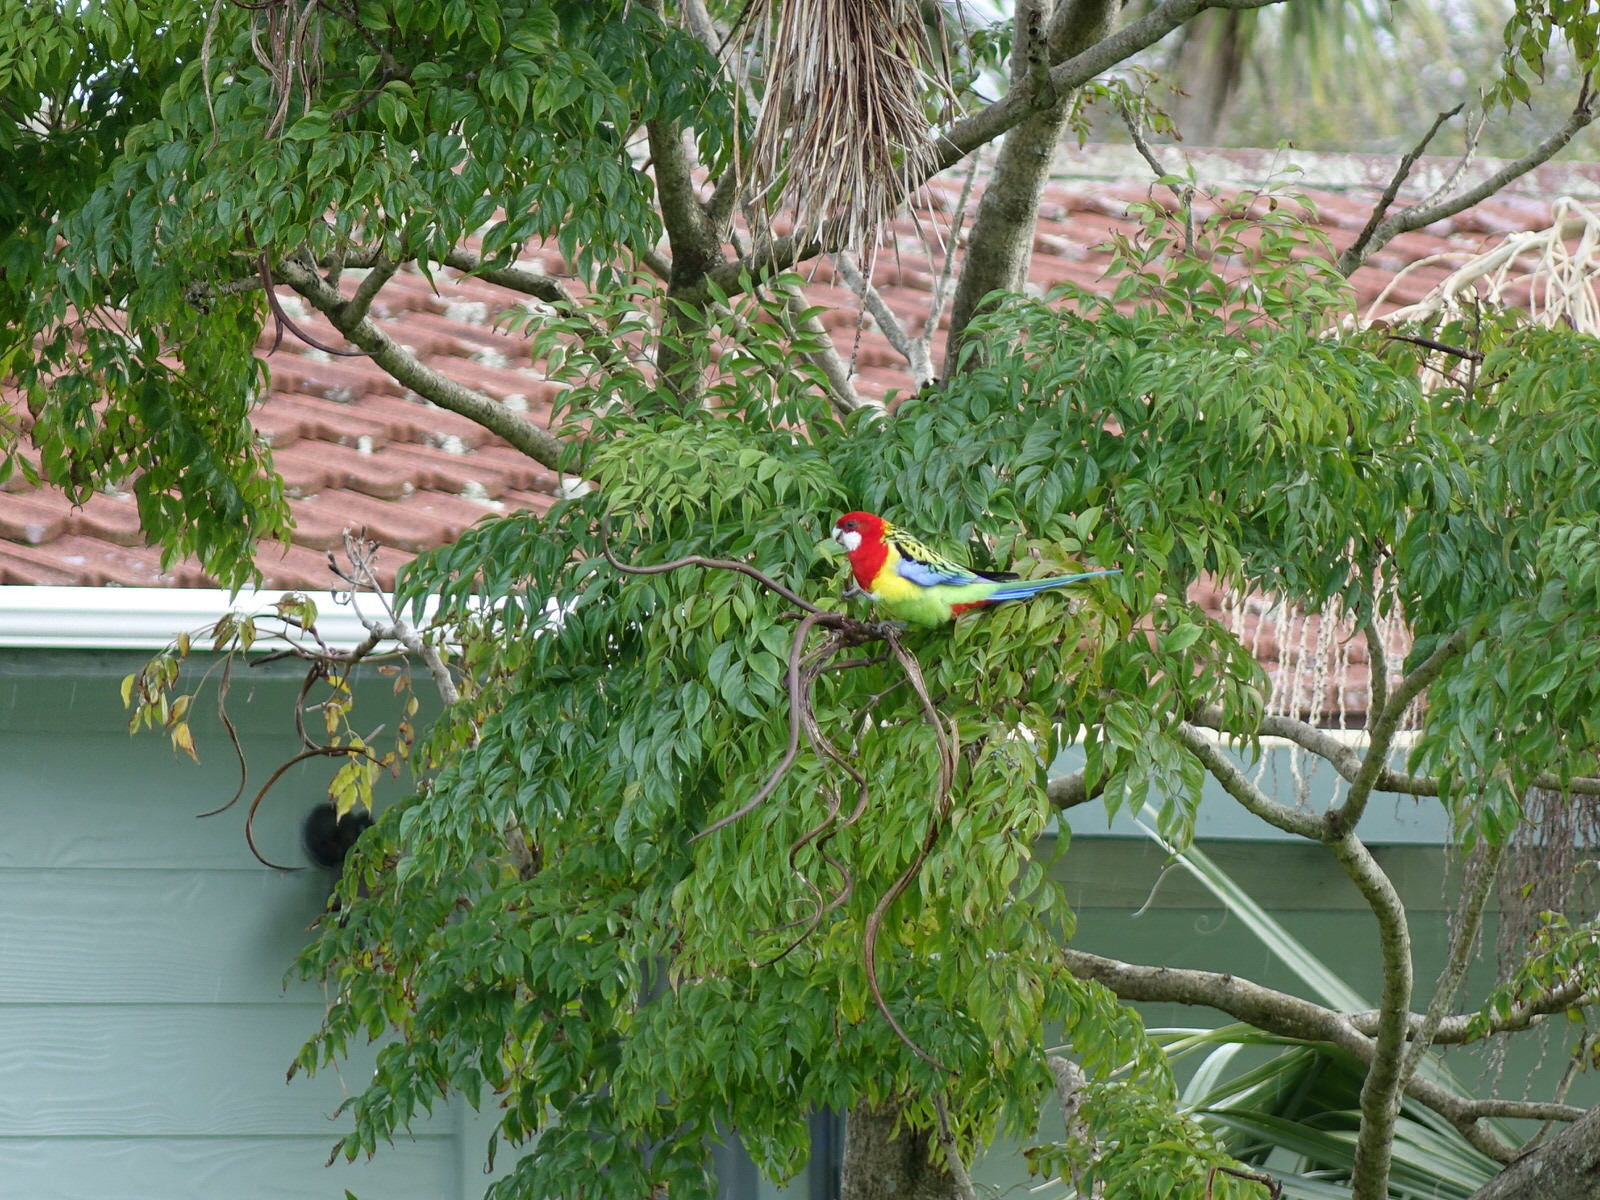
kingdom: Animalia
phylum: Chordata
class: Aves
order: Psittaciformes
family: Psittacidae
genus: Platycercus
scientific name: Platycercus eximius
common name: Eastern rosella
